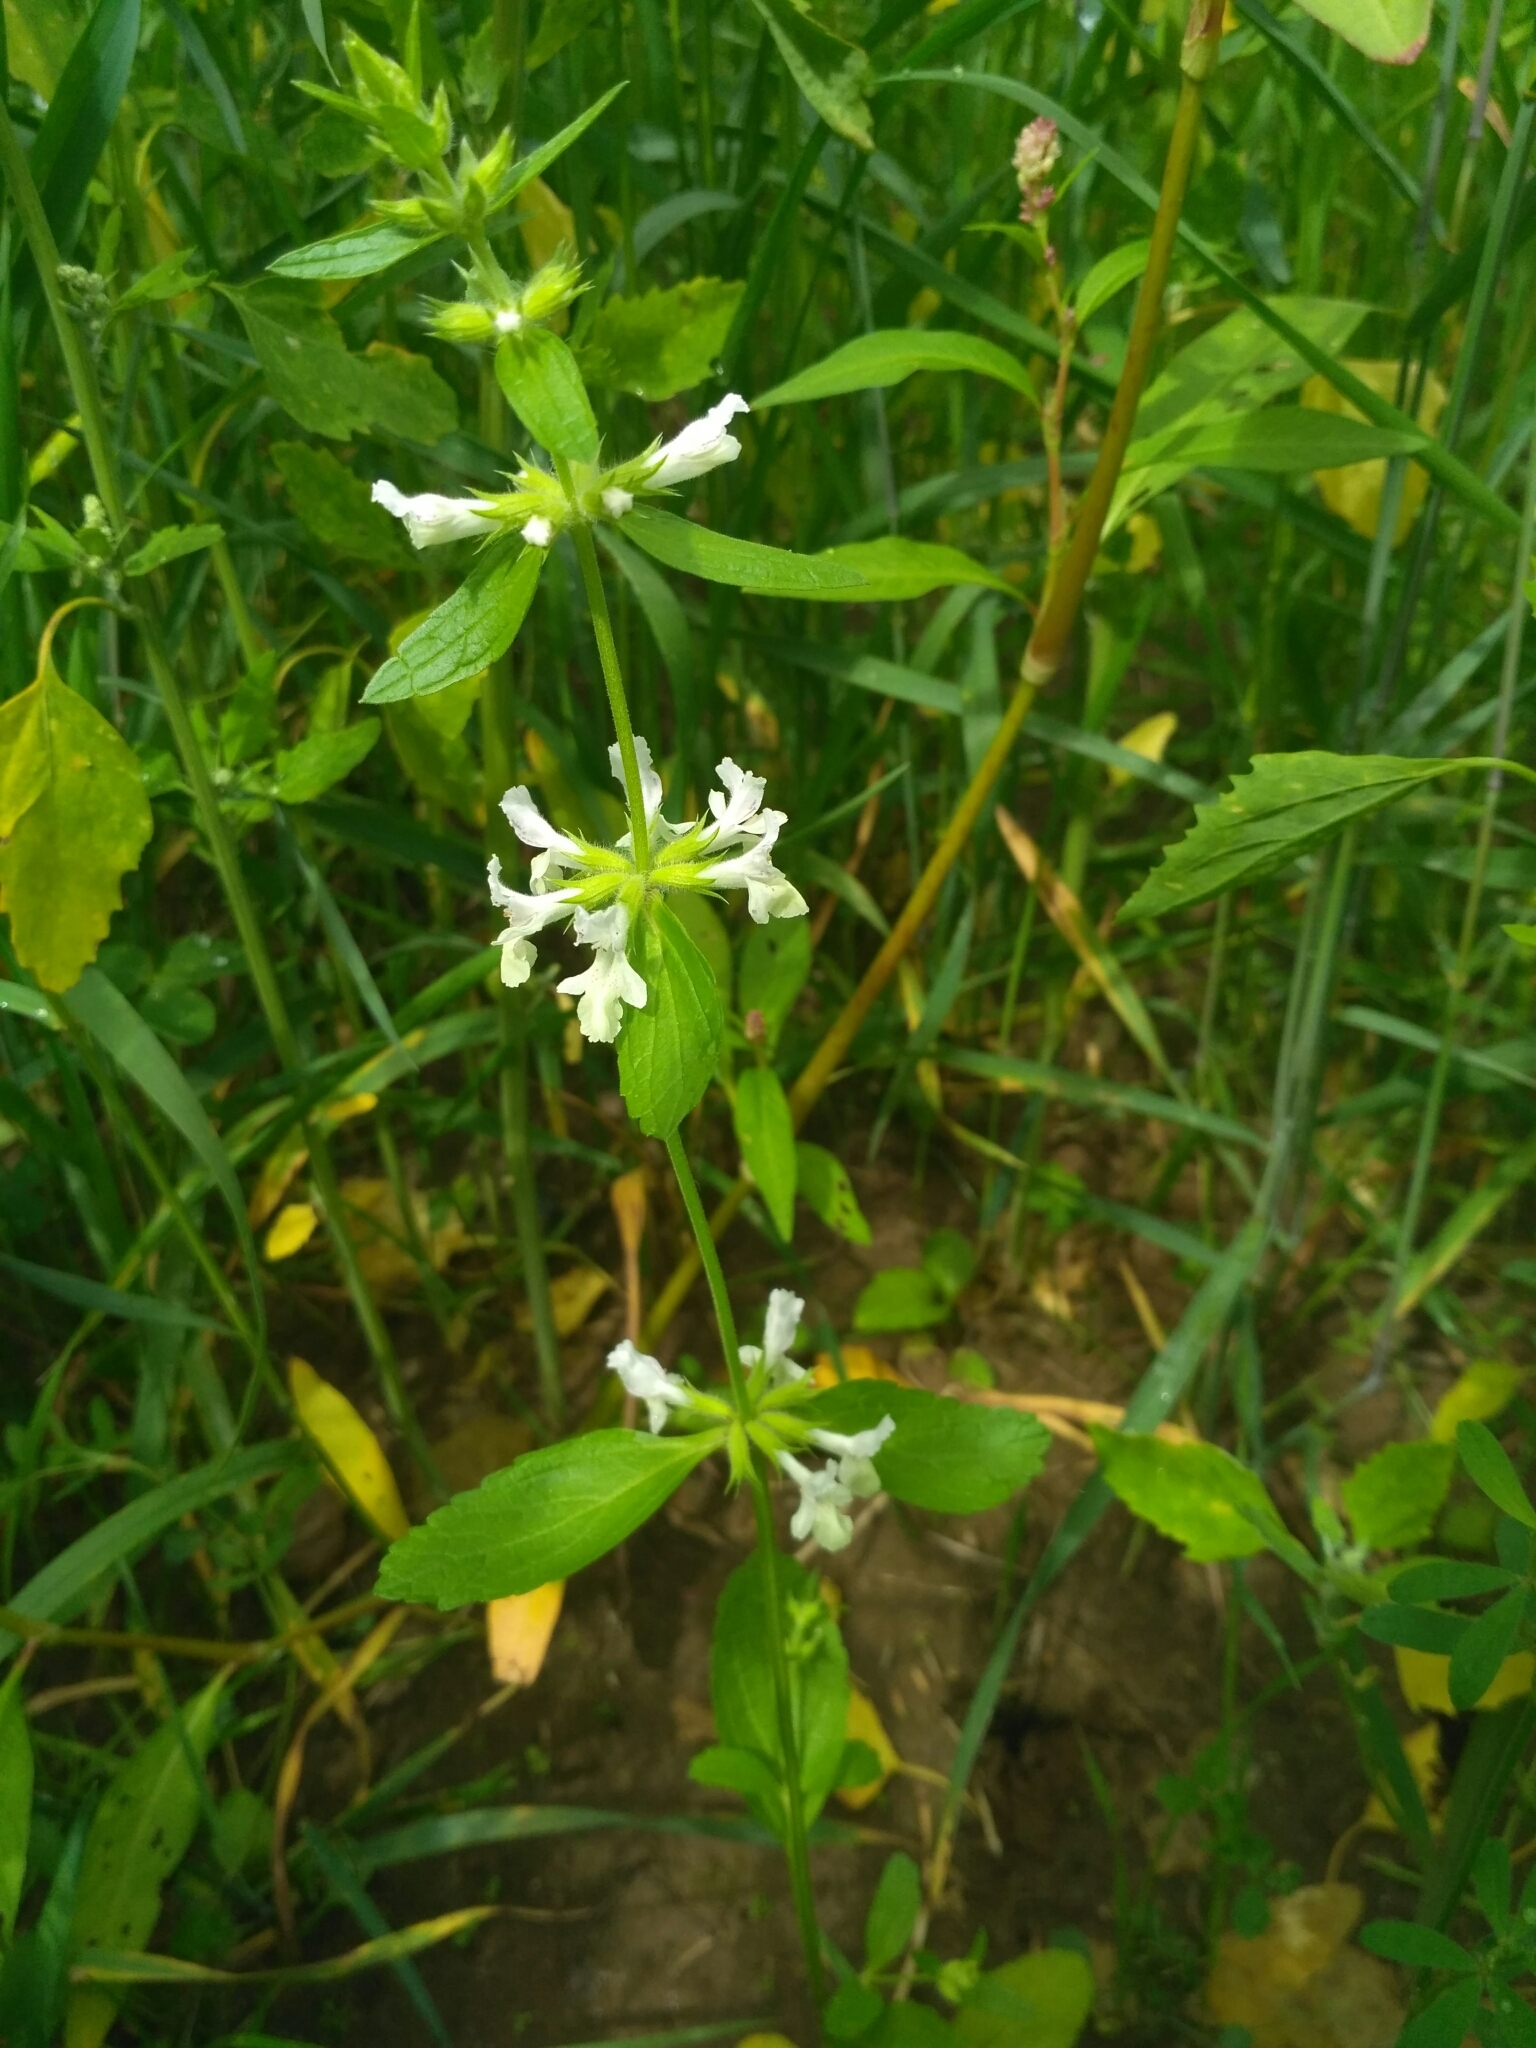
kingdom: Plantae
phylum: Tracheophyta
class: Magnoliopsida
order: Lamiales
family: Lamiaceae
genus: Stachys
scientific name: Stachys annua
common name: Annual yellow-woundwort
